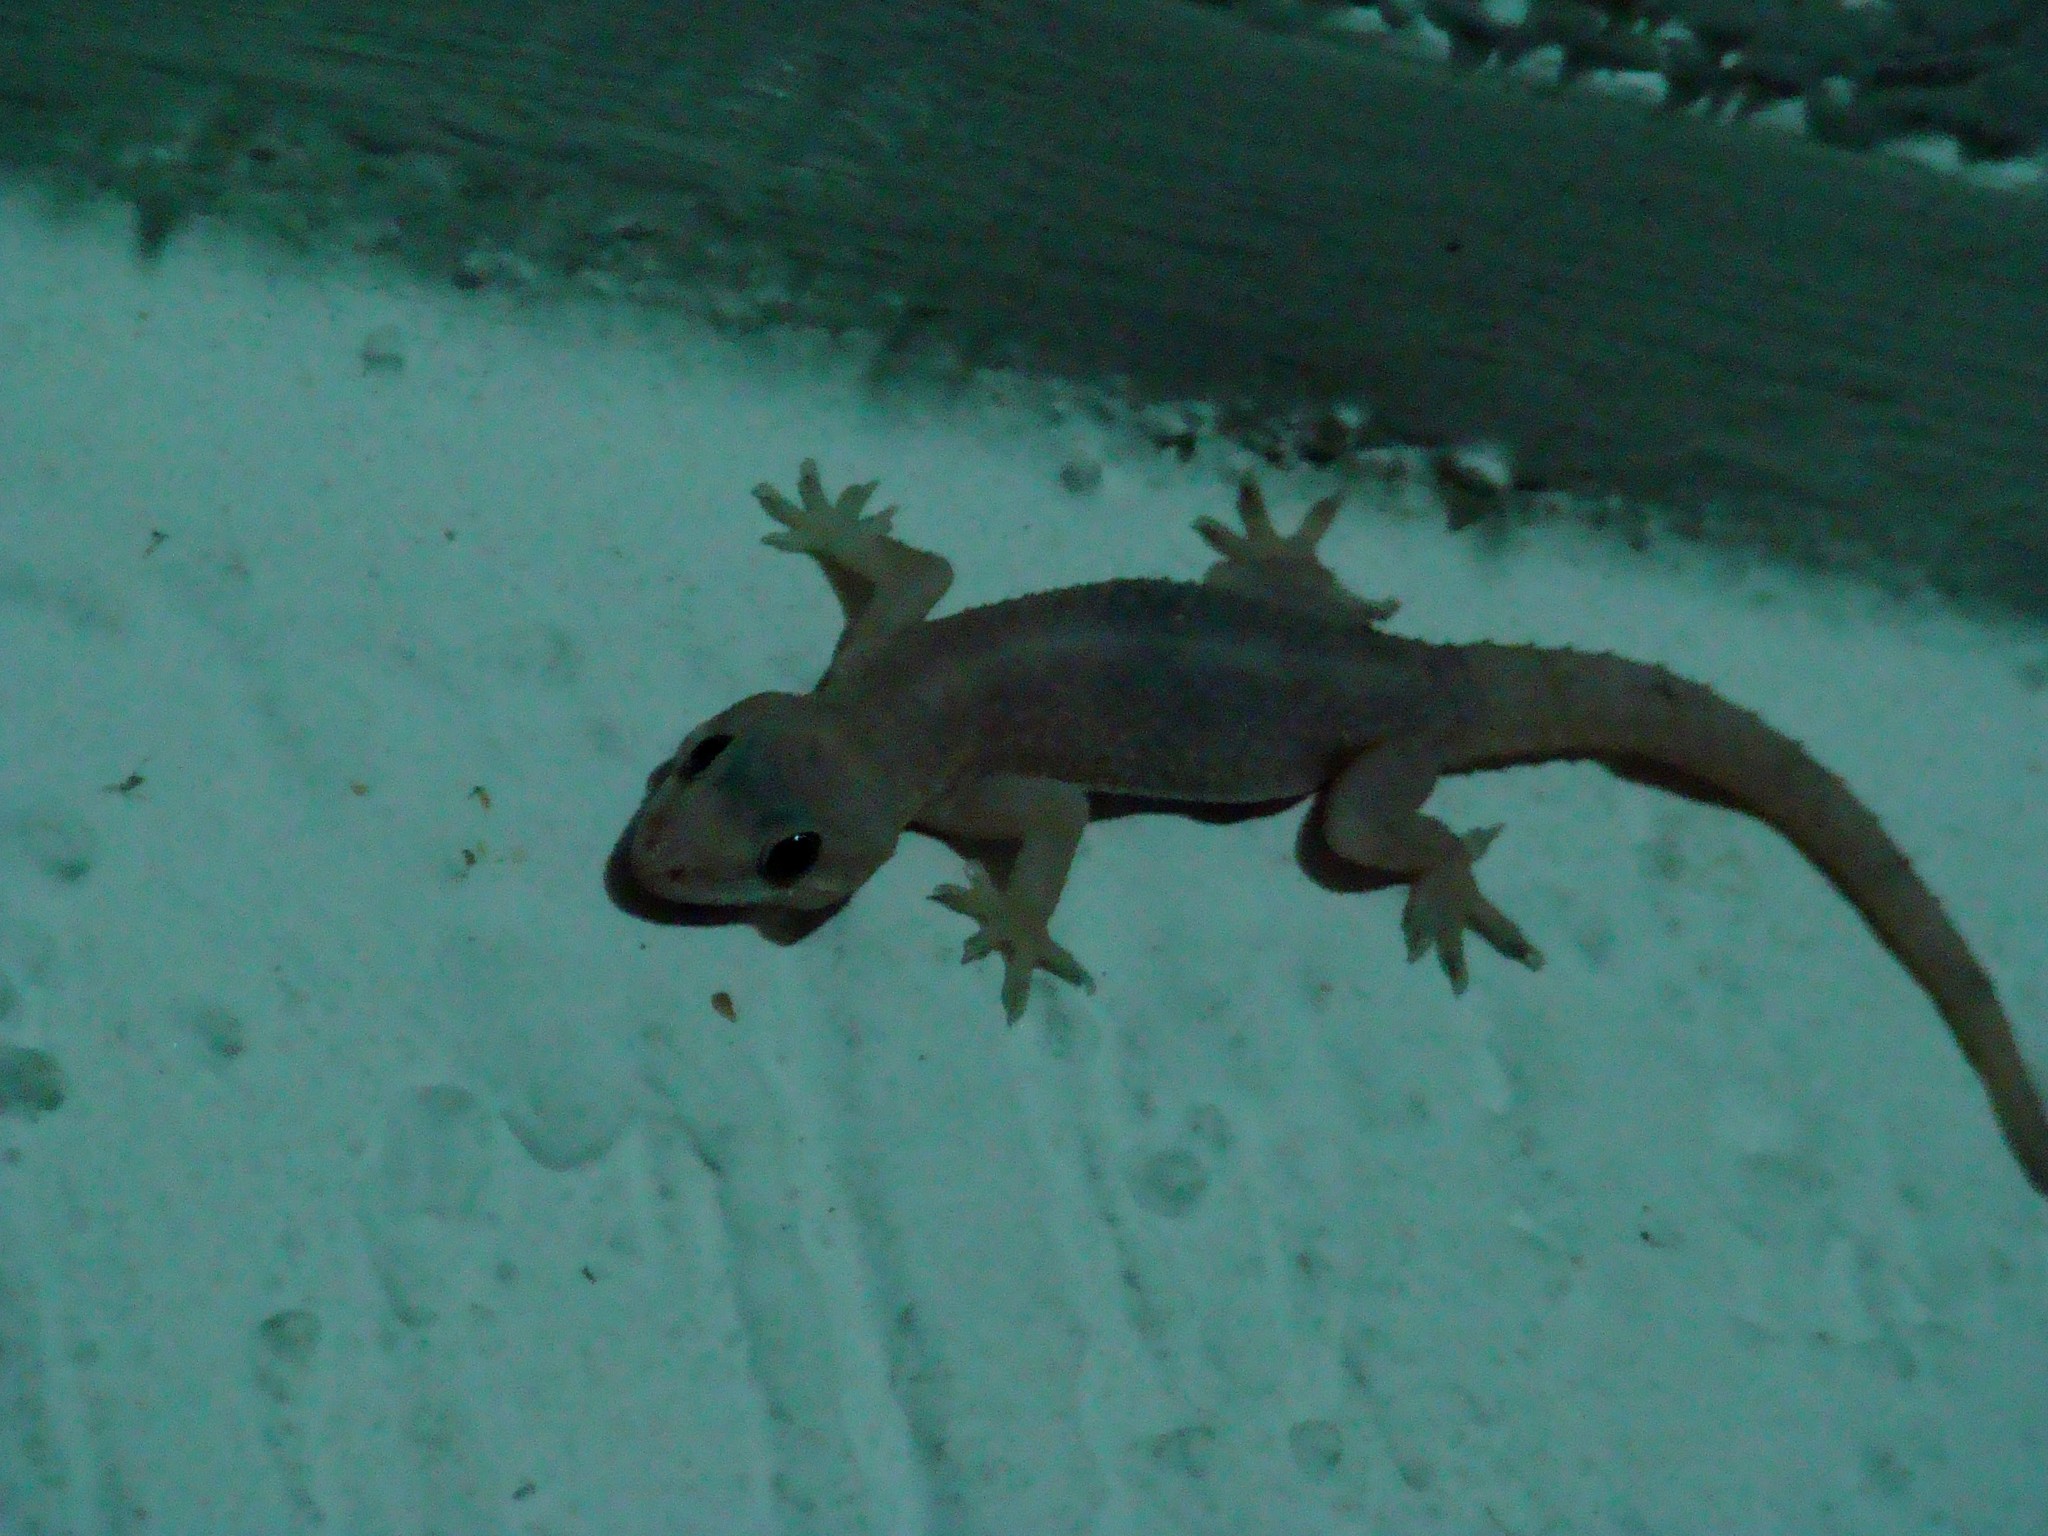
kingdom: Animalia
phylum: Chordata
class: Squamata
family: Gekkonidae
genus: Hemidactylus
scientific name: Hemidactylus angulatus
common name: Brook's house gecko
